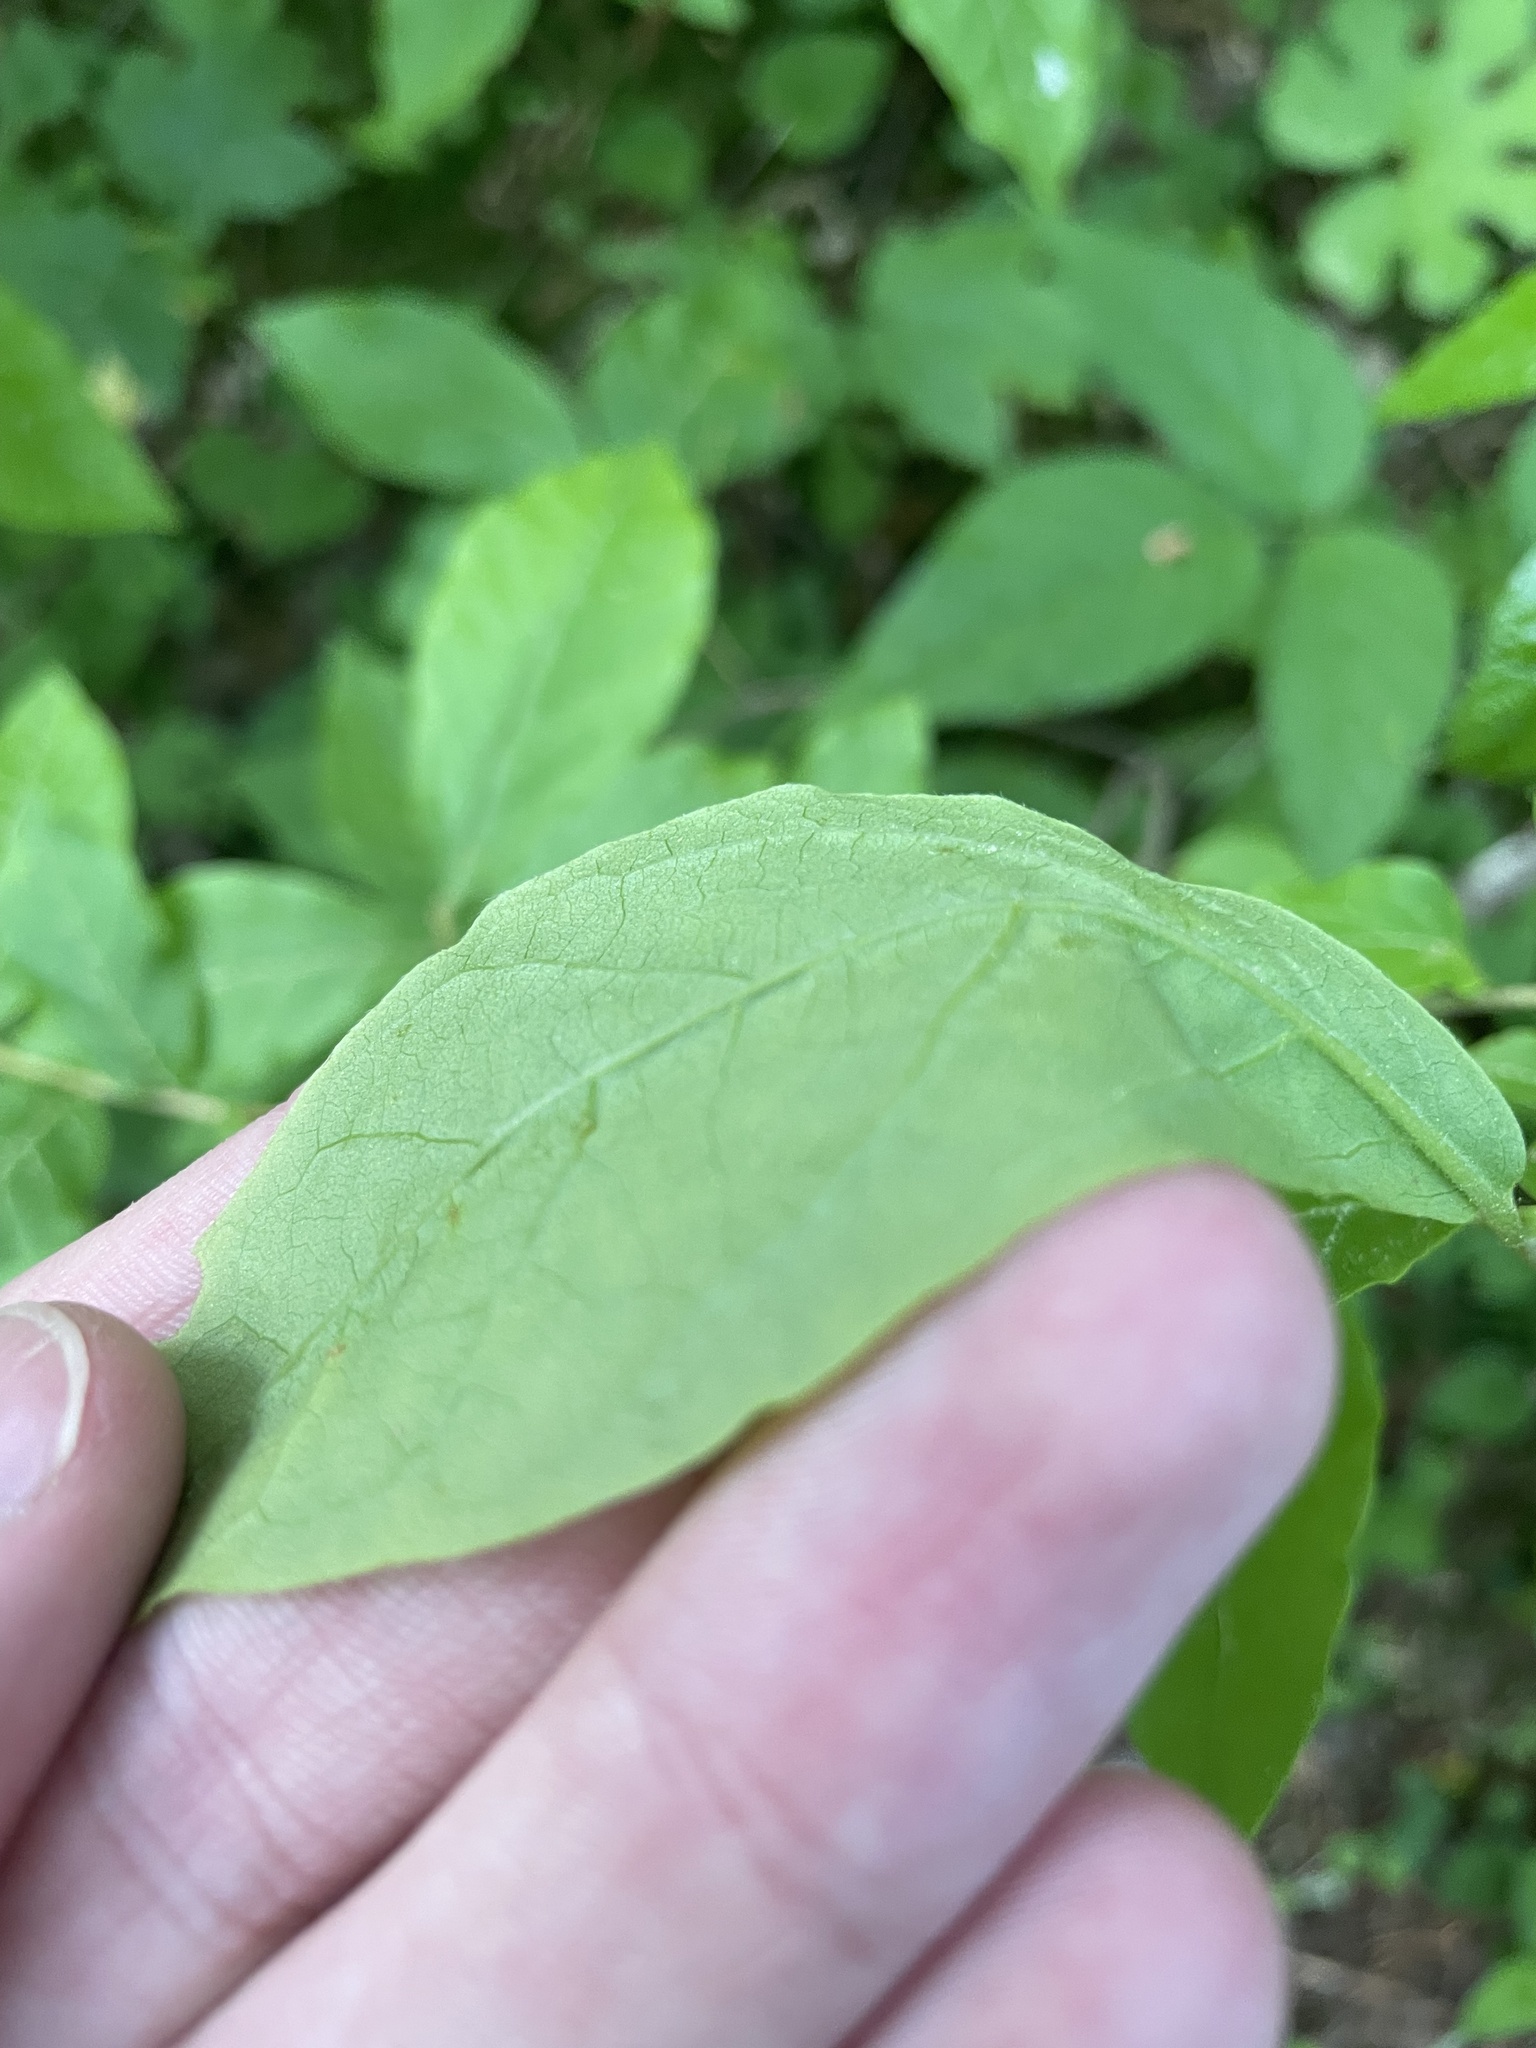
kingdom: Plantae
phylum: Tracheophyta
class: Magnoliopsida
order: Ericales
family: Ericaceae
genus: Gaylussacia
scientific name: Gaylussacia ursina
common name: Bear huckleberry
